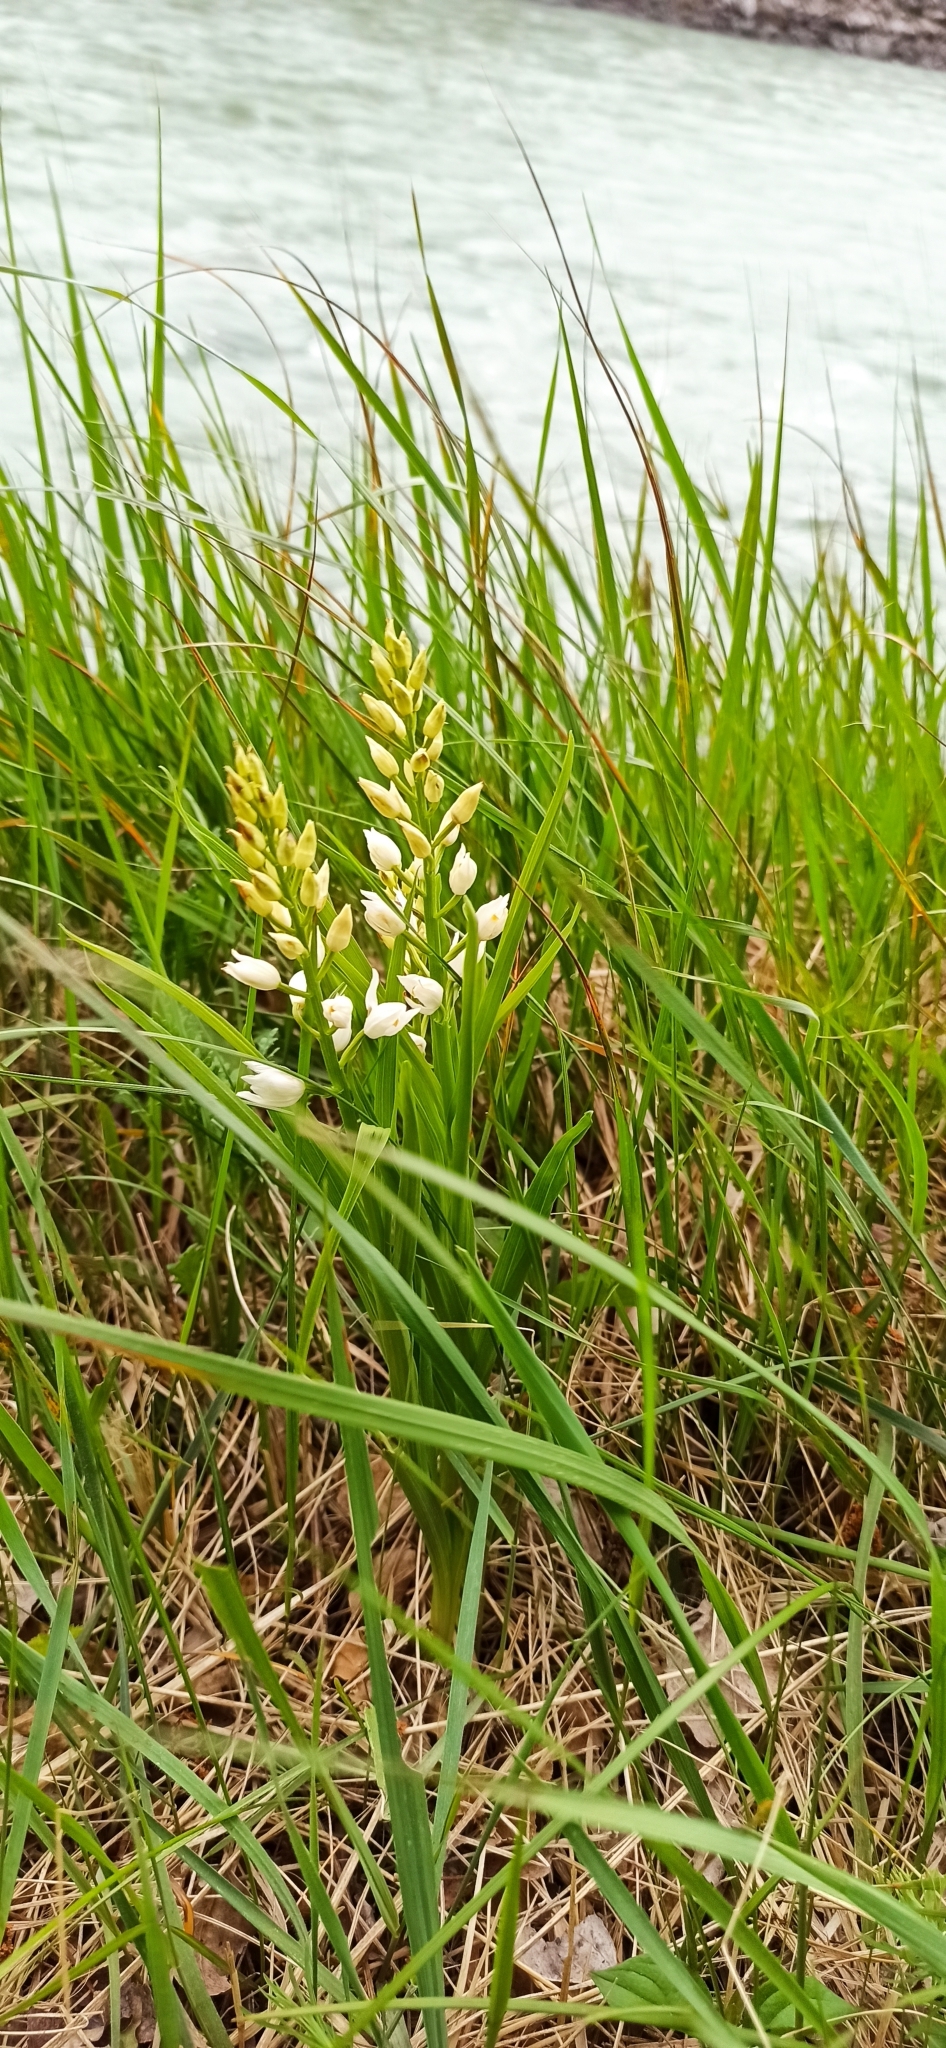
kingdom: Plantae
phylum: Tracheophyta
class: Liliopsida
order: Asparagales
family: Orchidaceae
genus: Cephalanthera
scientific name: Cephalanthera longifolia
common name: Narrow-leaved helleborine
